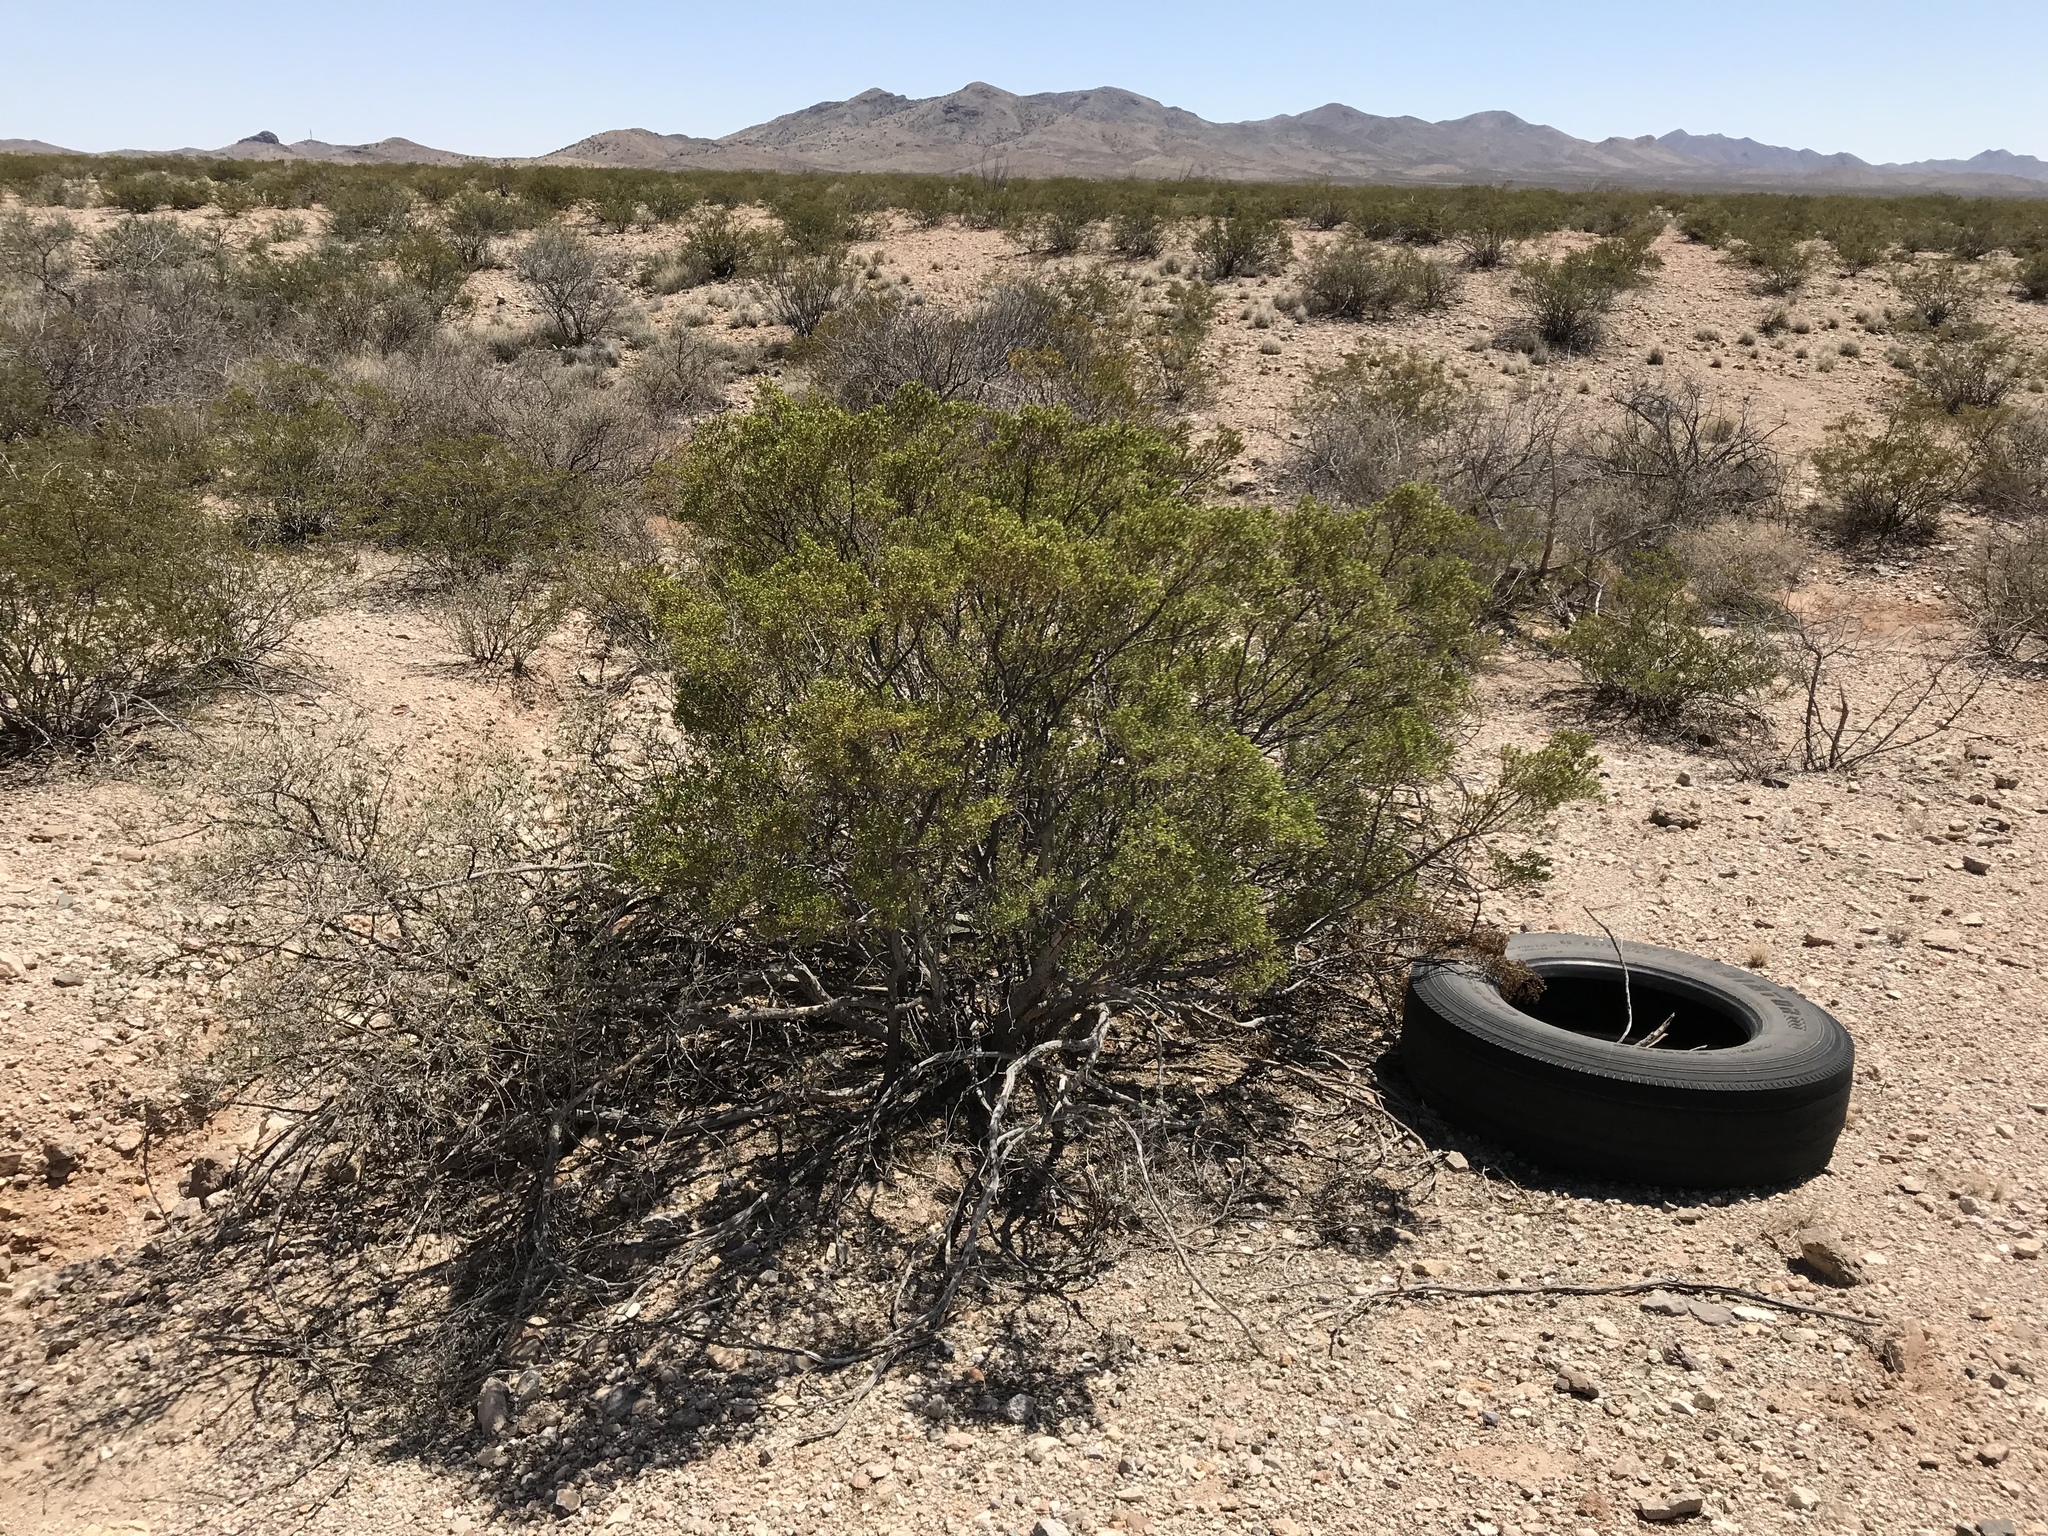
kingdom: Plantae
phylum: Tracheophyta
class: Magnoliopsida
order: Zygophyllales
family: Zygophyllaceae
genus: Larrea
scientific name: Larrea tridentata
